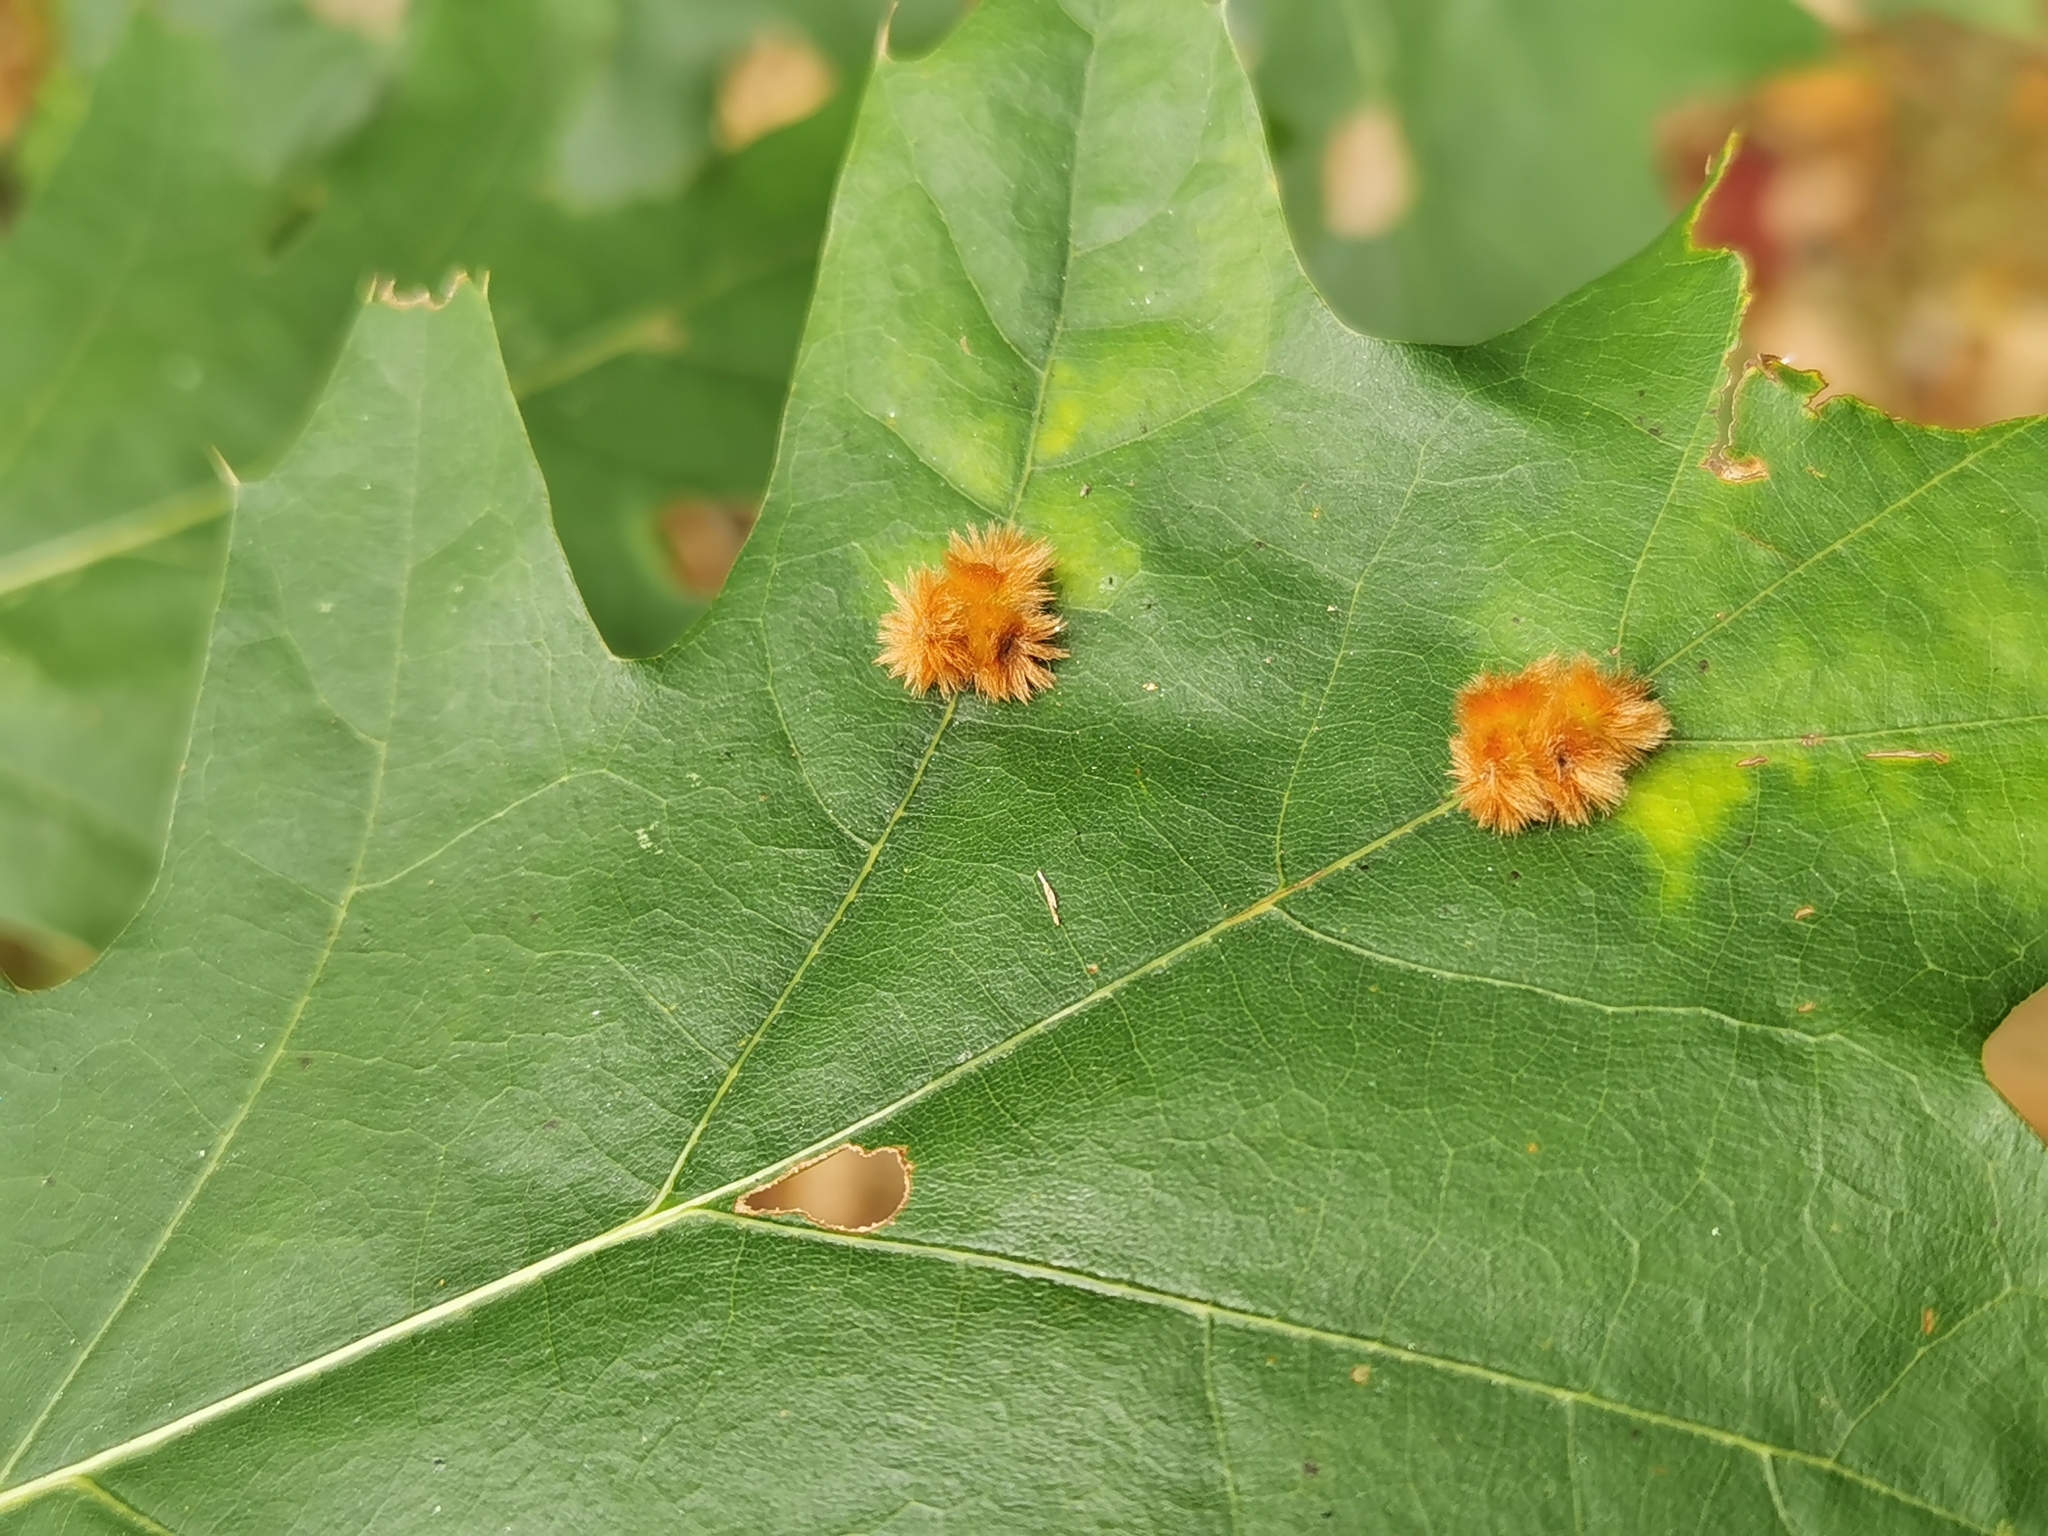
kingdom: Animalia
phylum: Arthropoda
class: Insecta
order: Hymenoptera
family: Cynipidae
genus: Callirhytis
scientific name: Callirhytis
